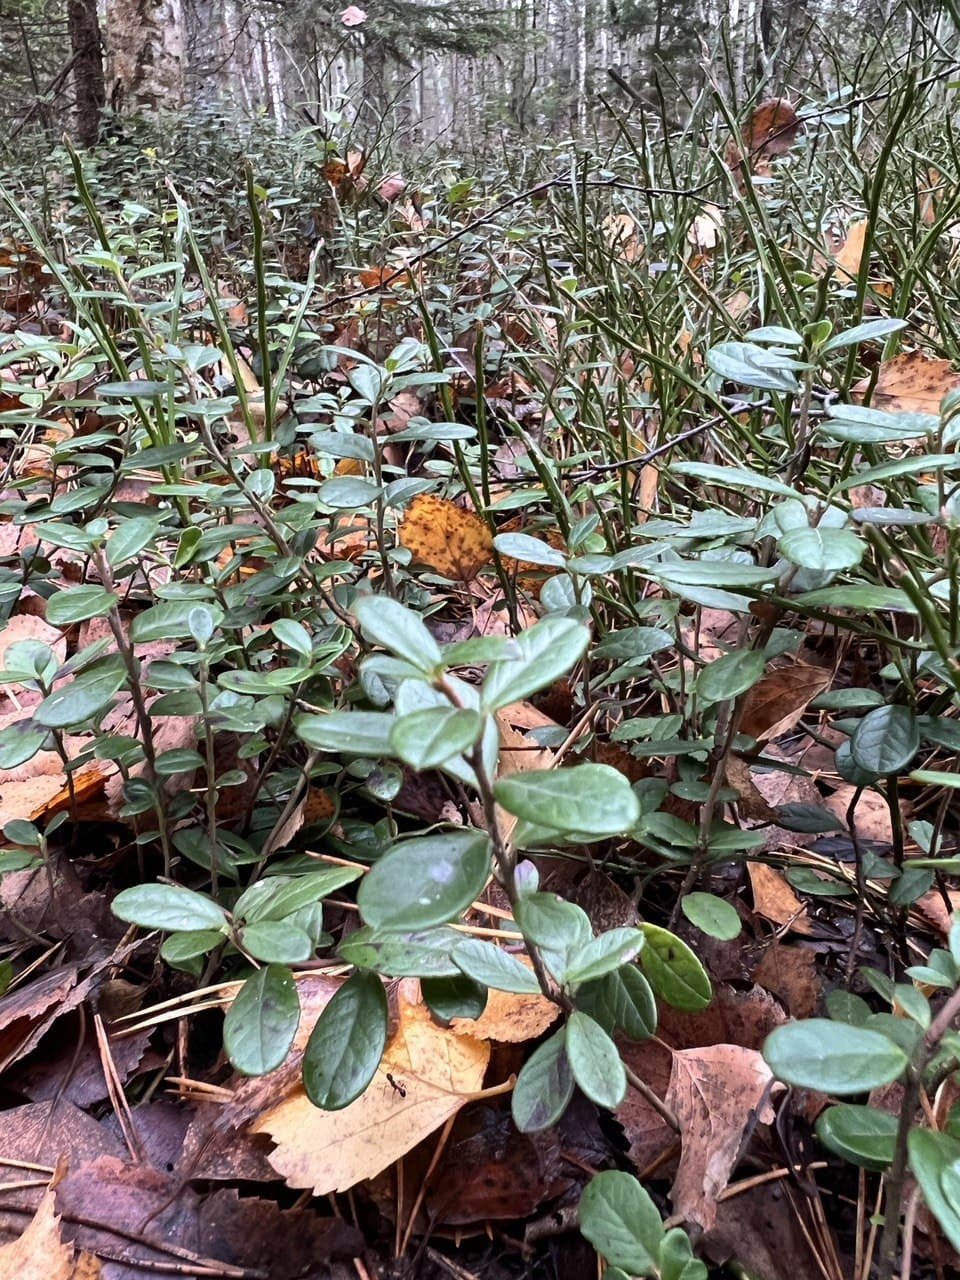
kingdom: Plantae
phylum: Tracheophyta
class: Magnoliopsida
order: Ericales
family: Ericaceae
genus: Vaccinium
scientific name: Vaccinium vitis-idaea
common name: Cowberry
